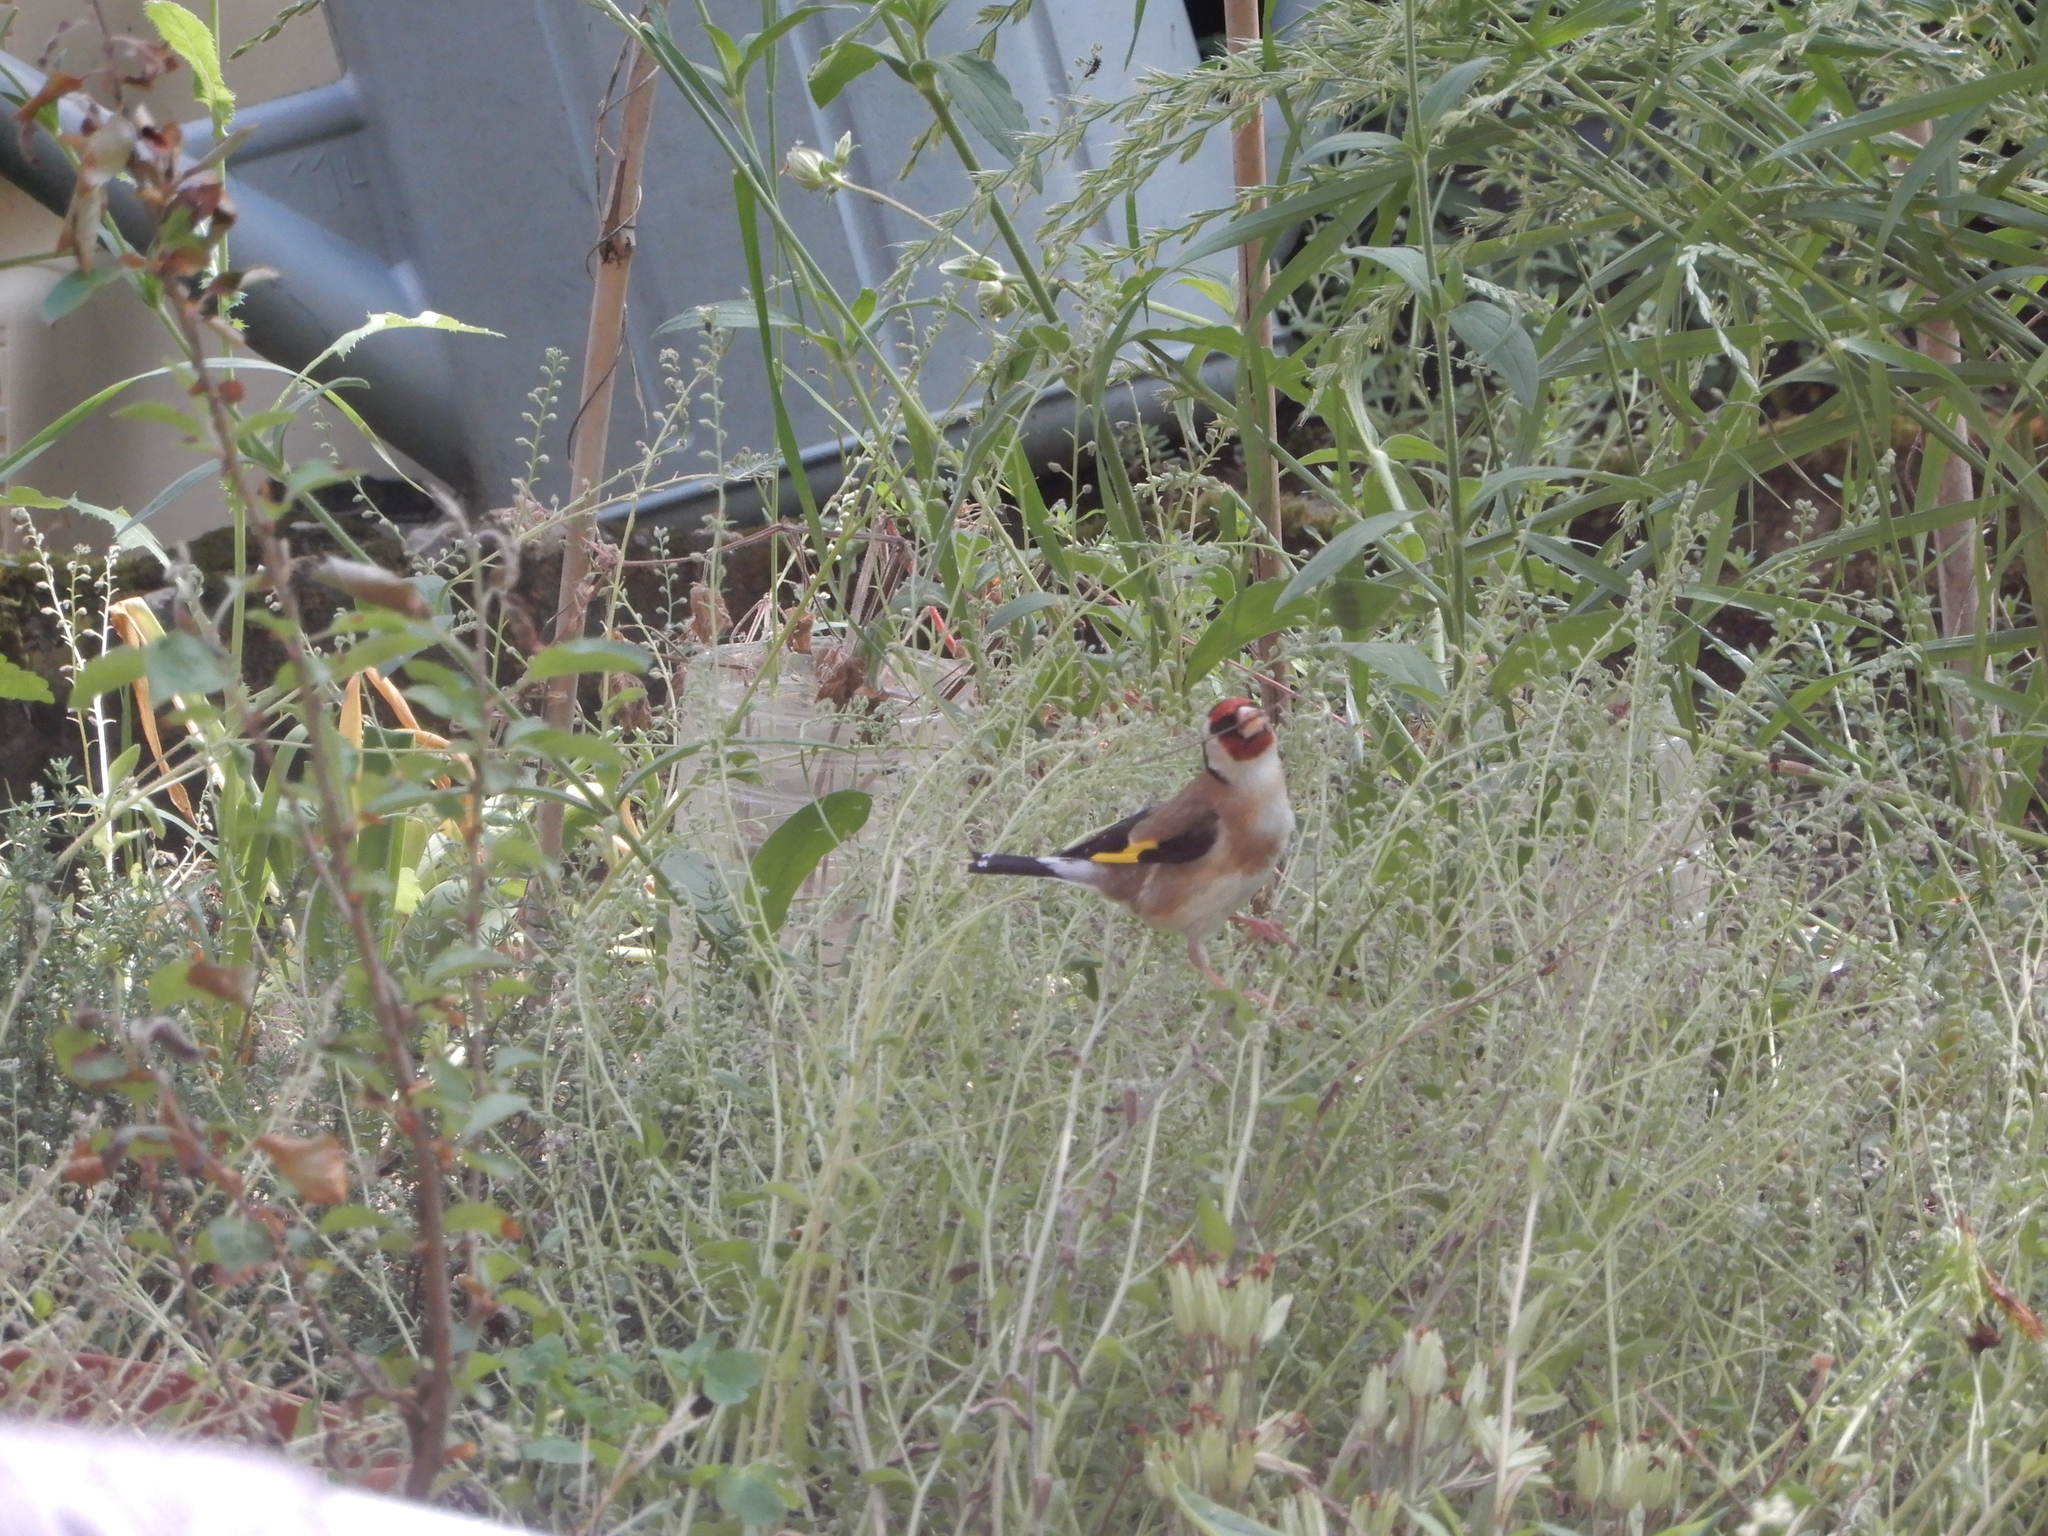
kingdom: Animalia
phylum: Chordata
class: Aves
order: Passeriformes
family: Fringillidae
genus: Carduelis
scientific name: Carduelis carduelis
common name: European goldfinch
